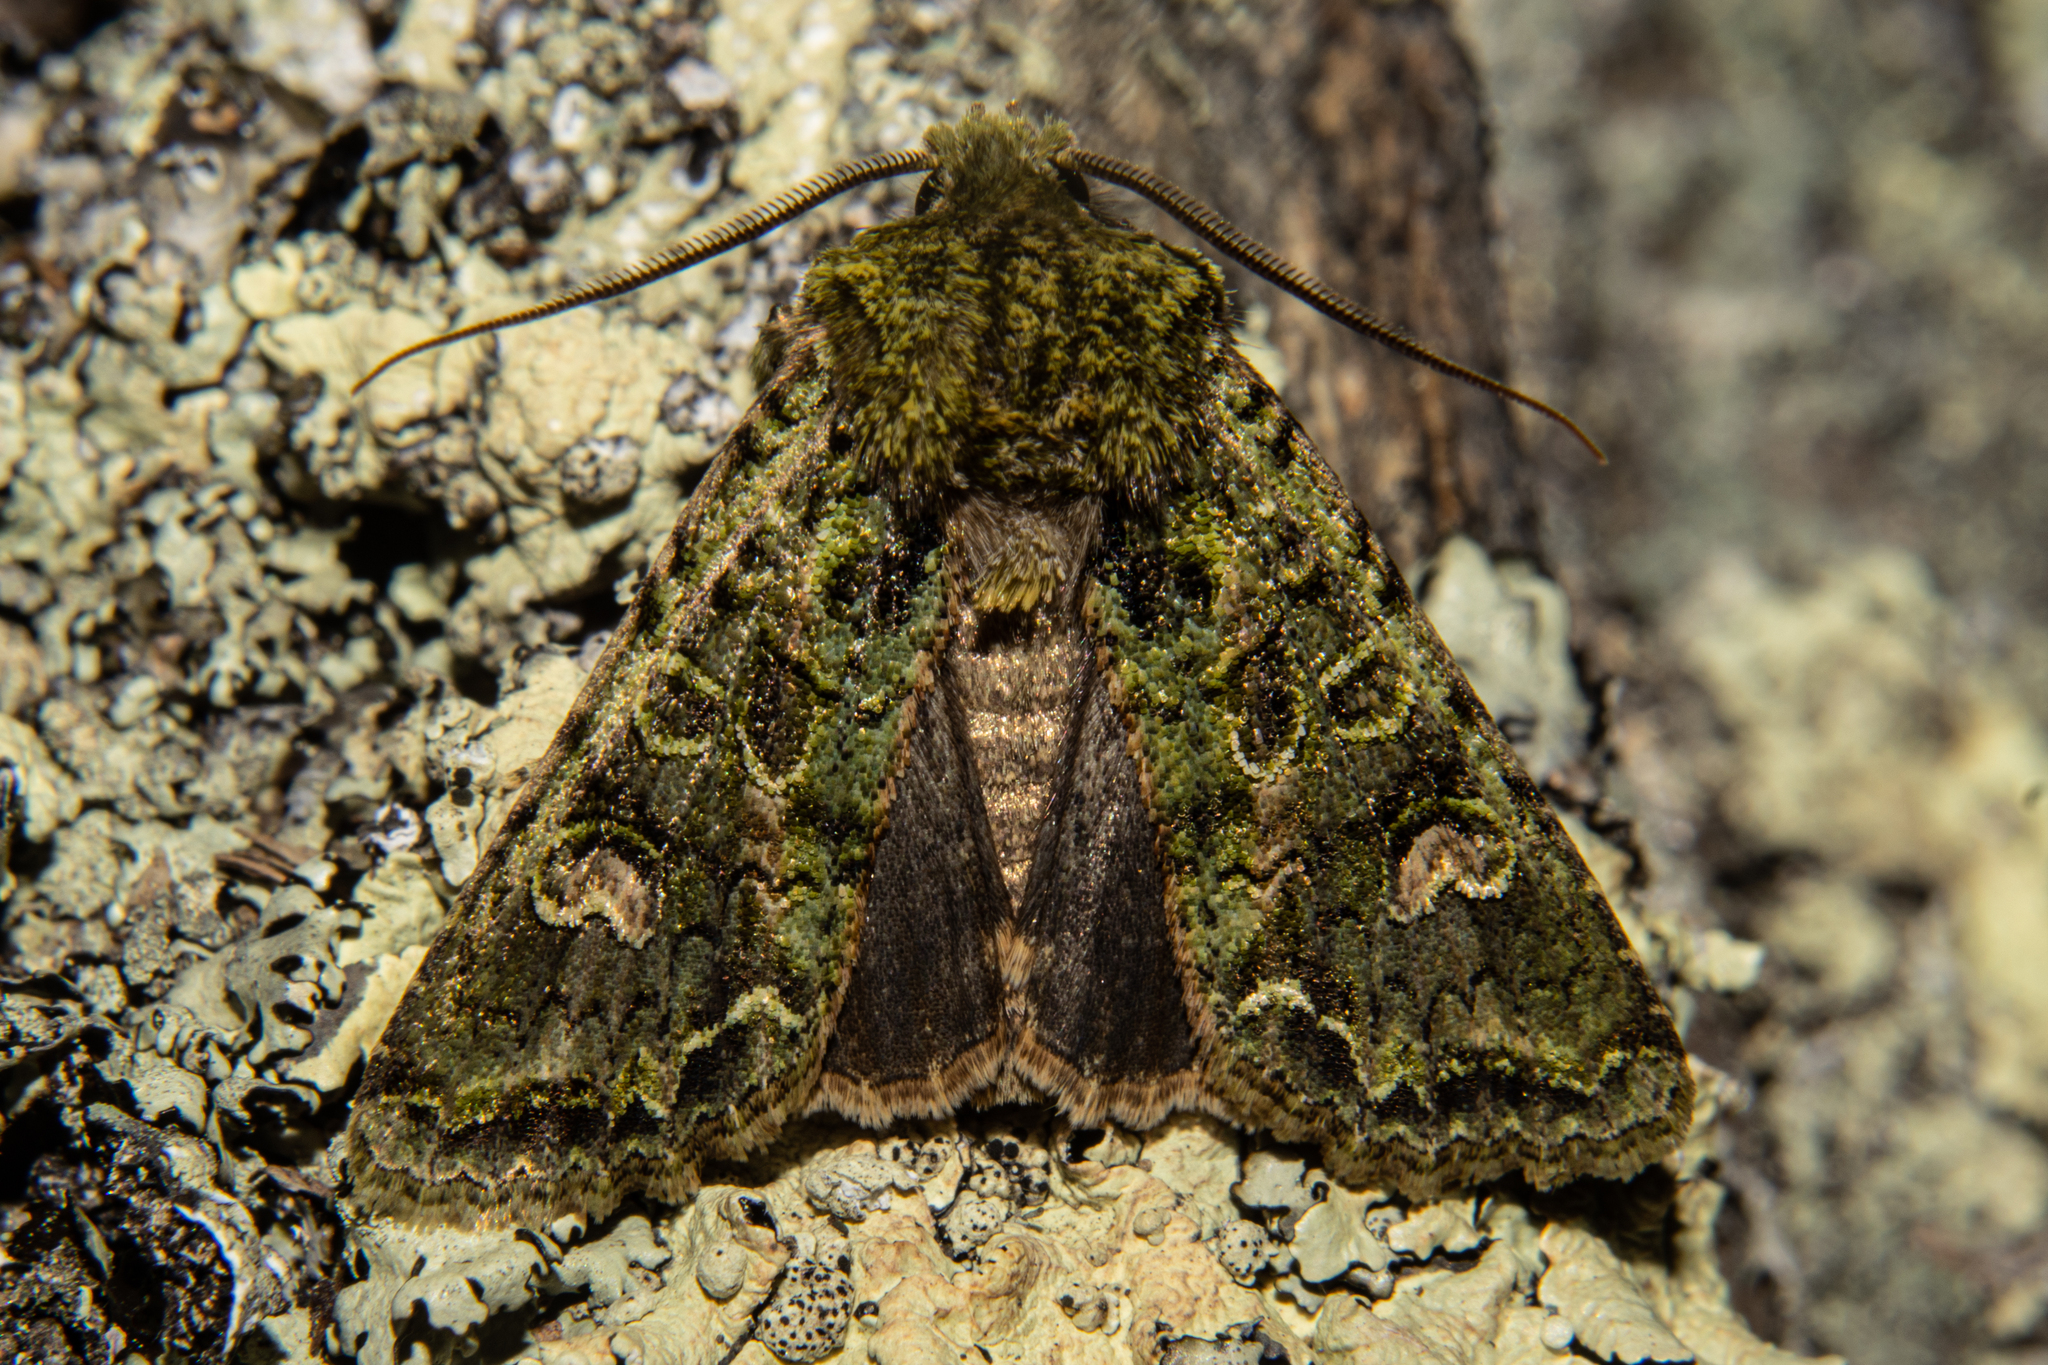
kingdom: Animalia
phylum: Arthropoda
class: Insecta
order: Lepidoptera
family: Noctuidae
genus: Ichneutica
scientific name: Ichneutica
